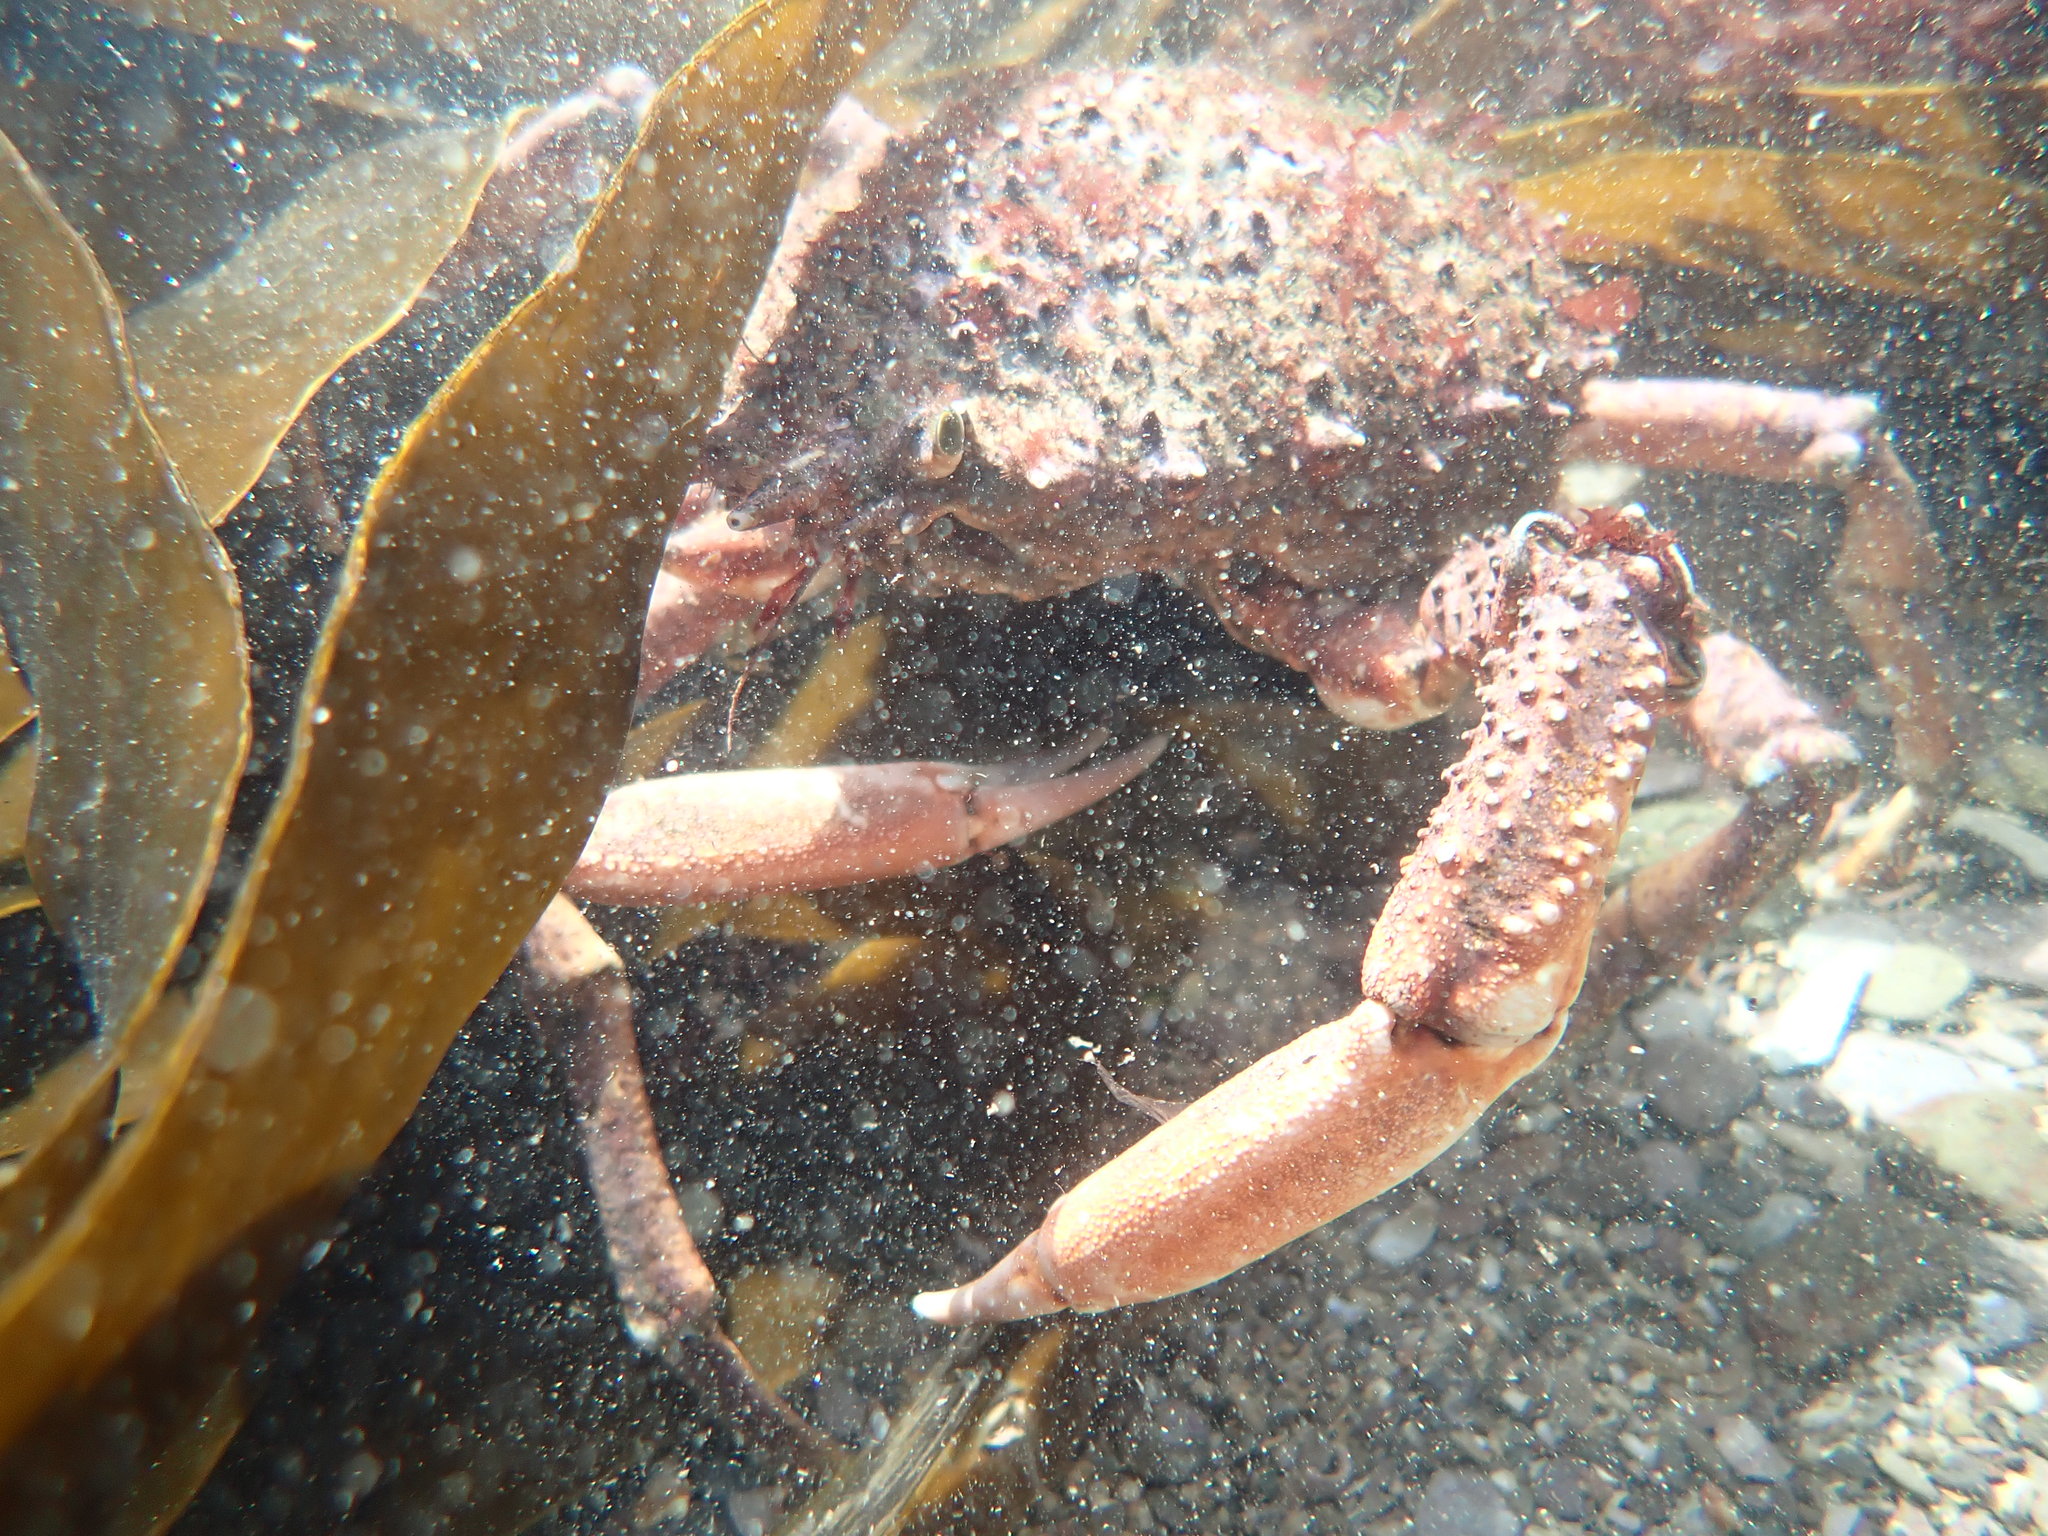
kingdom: Animalia
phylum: Arthropoda
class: Malacostraca
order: Decapoda
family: Majidae
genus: Maja
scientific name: Maja brachydactyla
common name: Common spider crab
